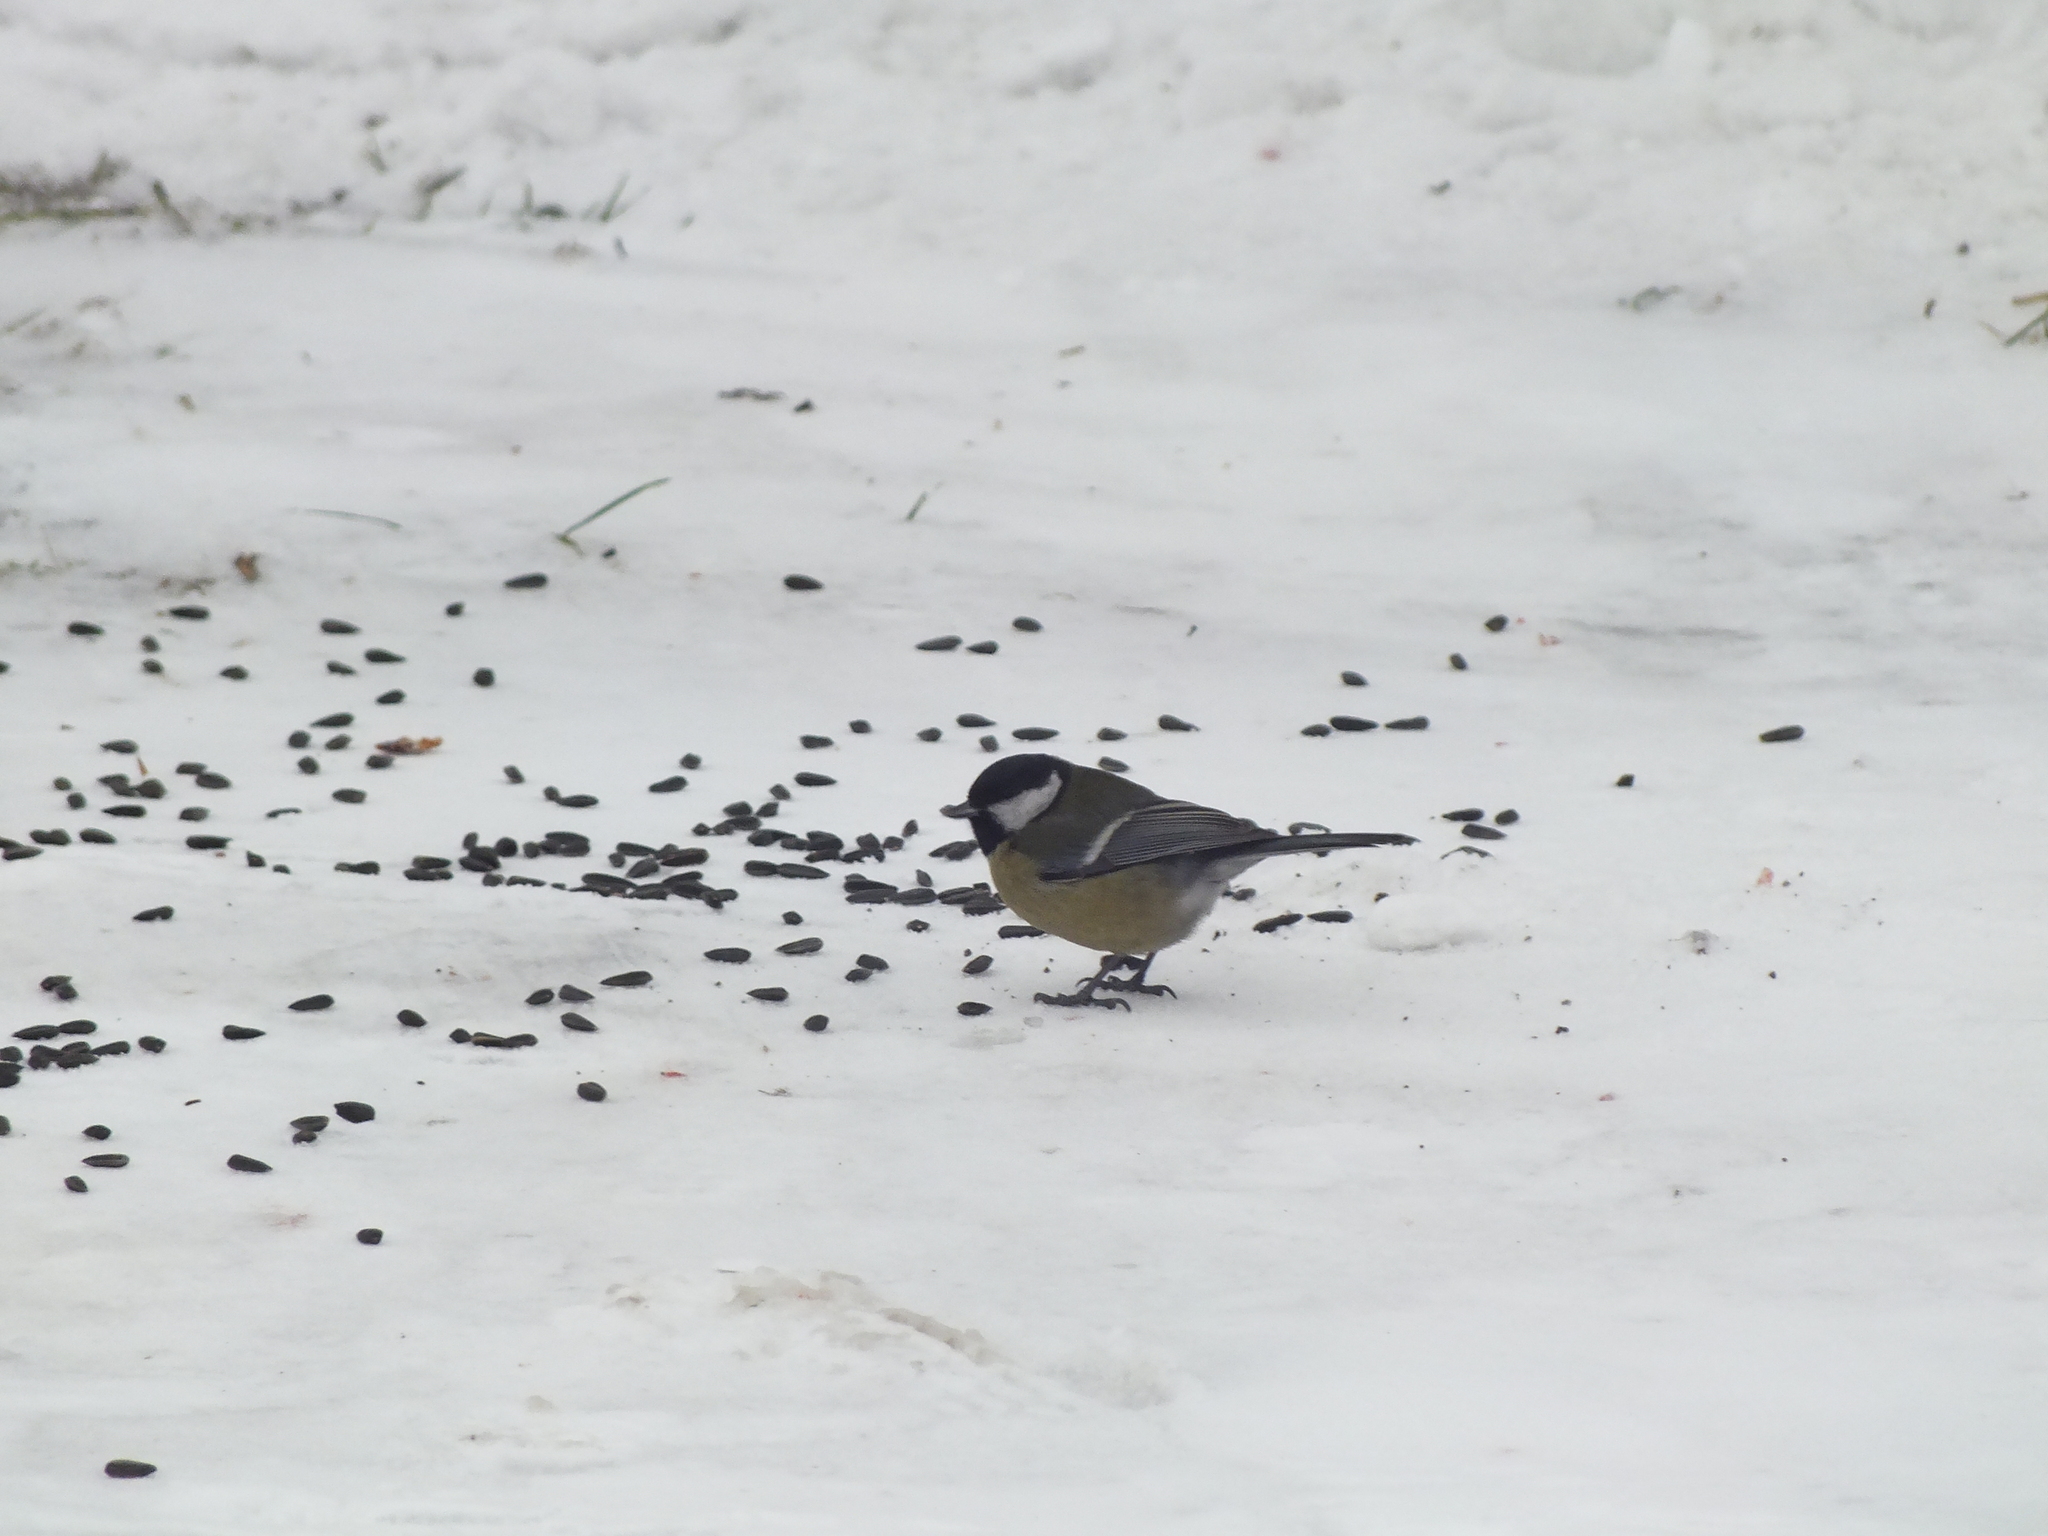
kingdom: Animalia
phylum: Chordata
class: Aves
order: Passeriformes
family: Paridae
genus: Parus
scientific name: Parus major
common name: Great tit
